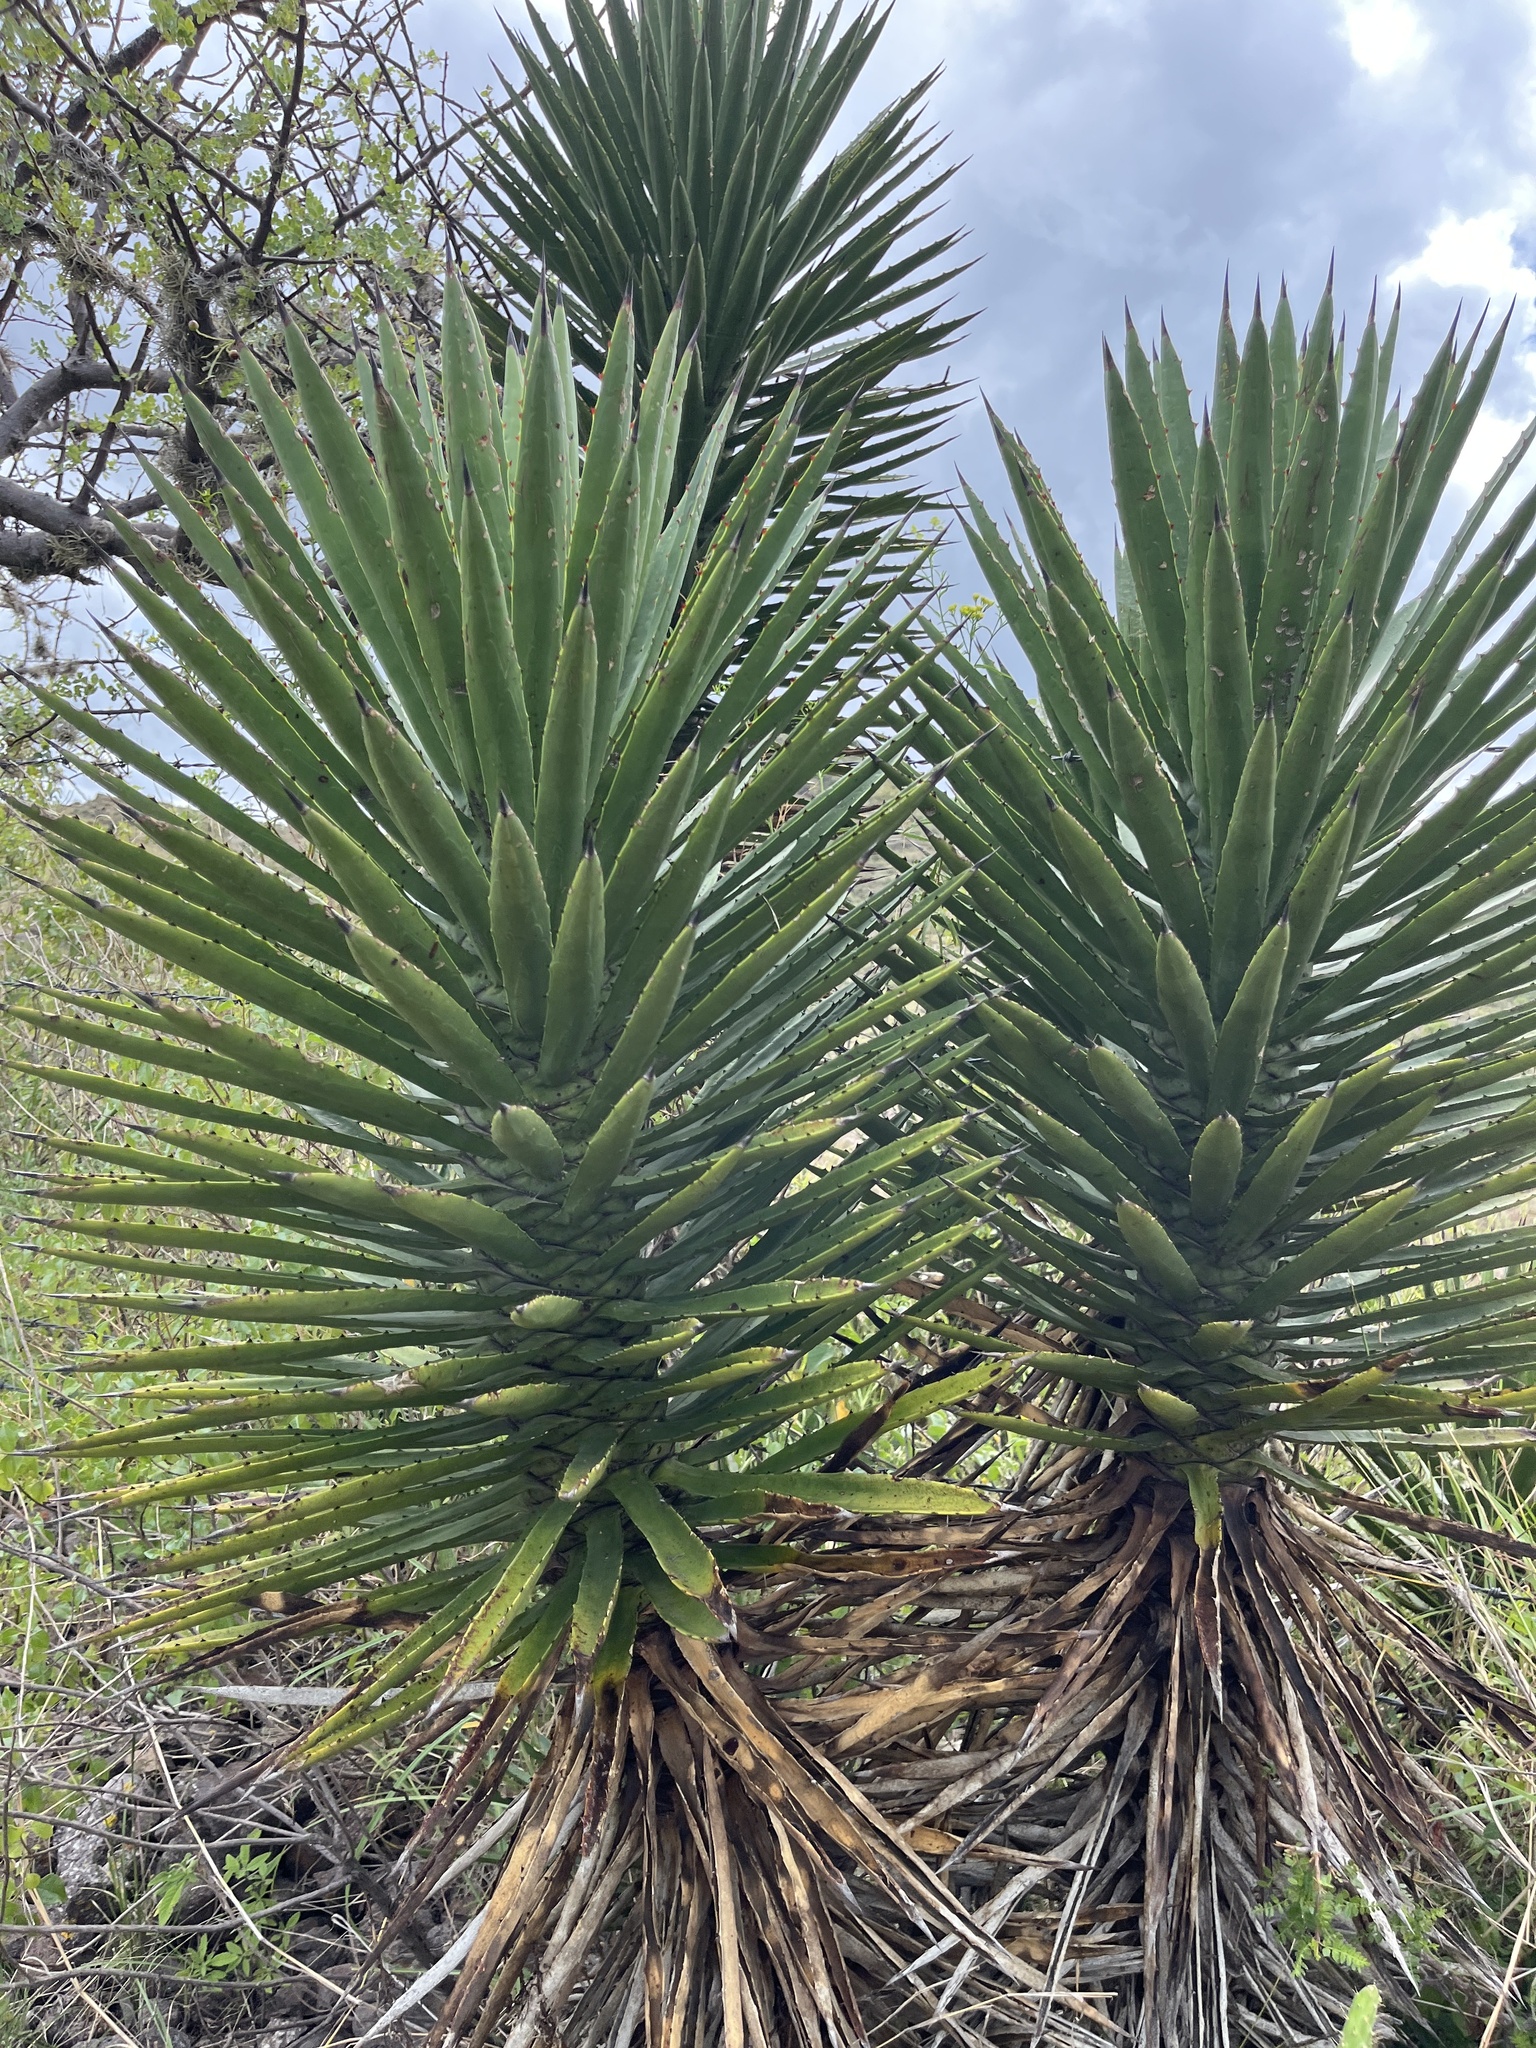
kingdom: Plantae
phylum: Tracheophyta
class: Liliopsida
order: Asparagales
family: Asparagaceae
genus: Agave
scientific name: Agave karwinskii
